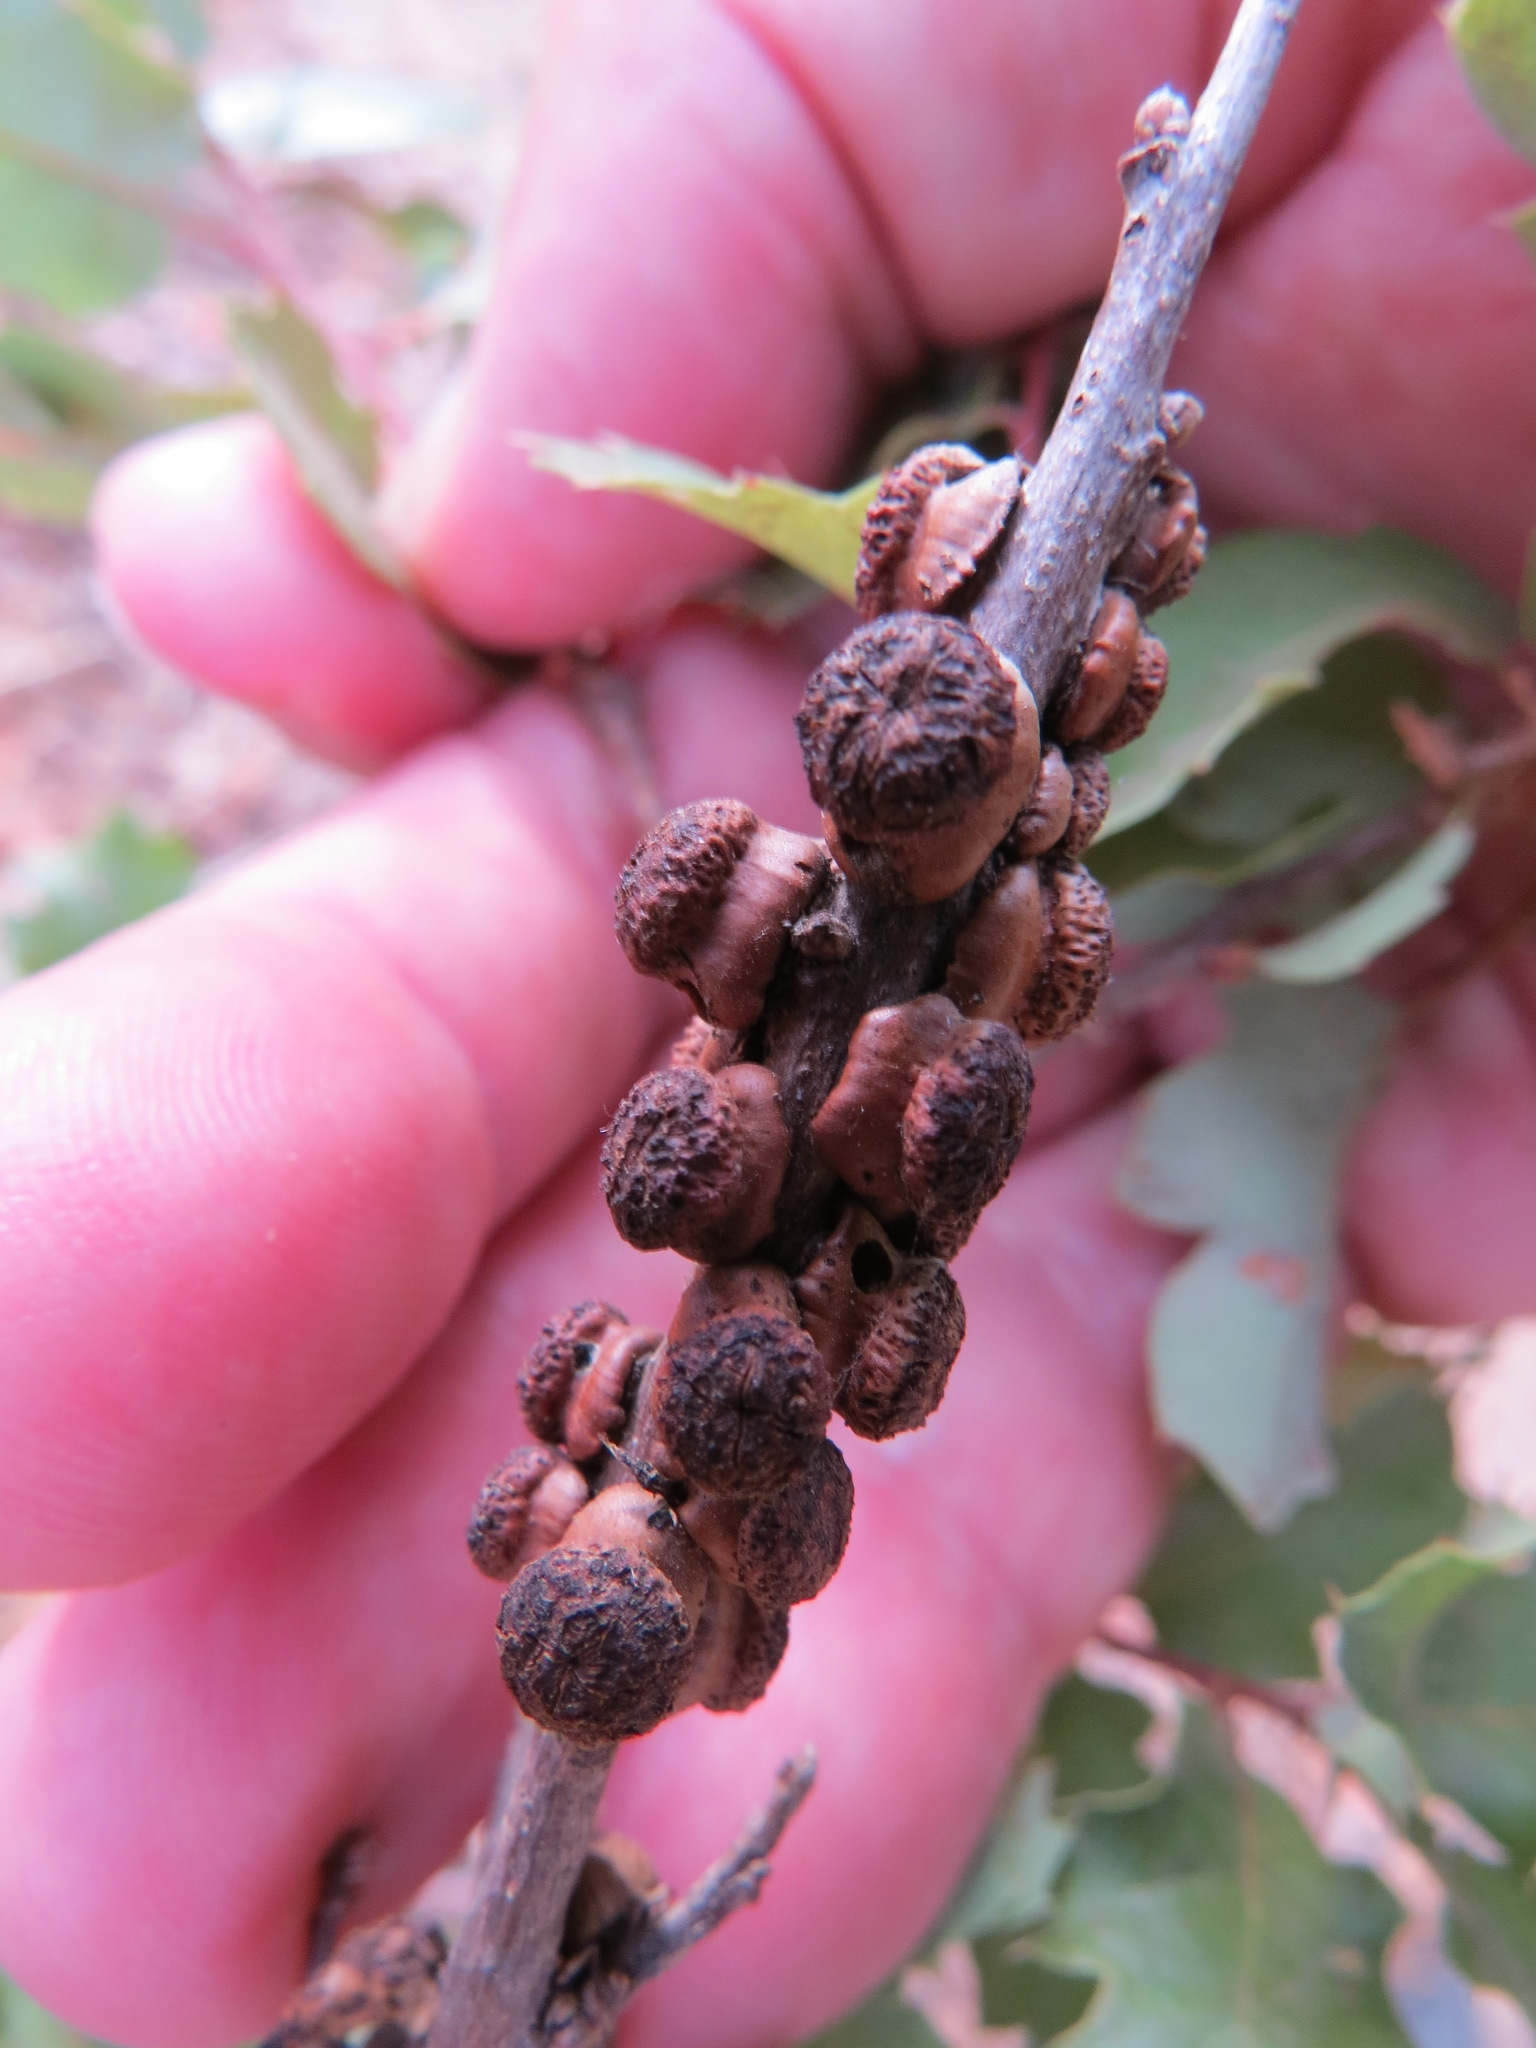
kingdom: Animalia
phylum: Arthropoda
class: Insecta
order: Hymenoptera
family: Cynipidae
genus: Disholcaspis
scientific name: Disholcaspis prehensa
